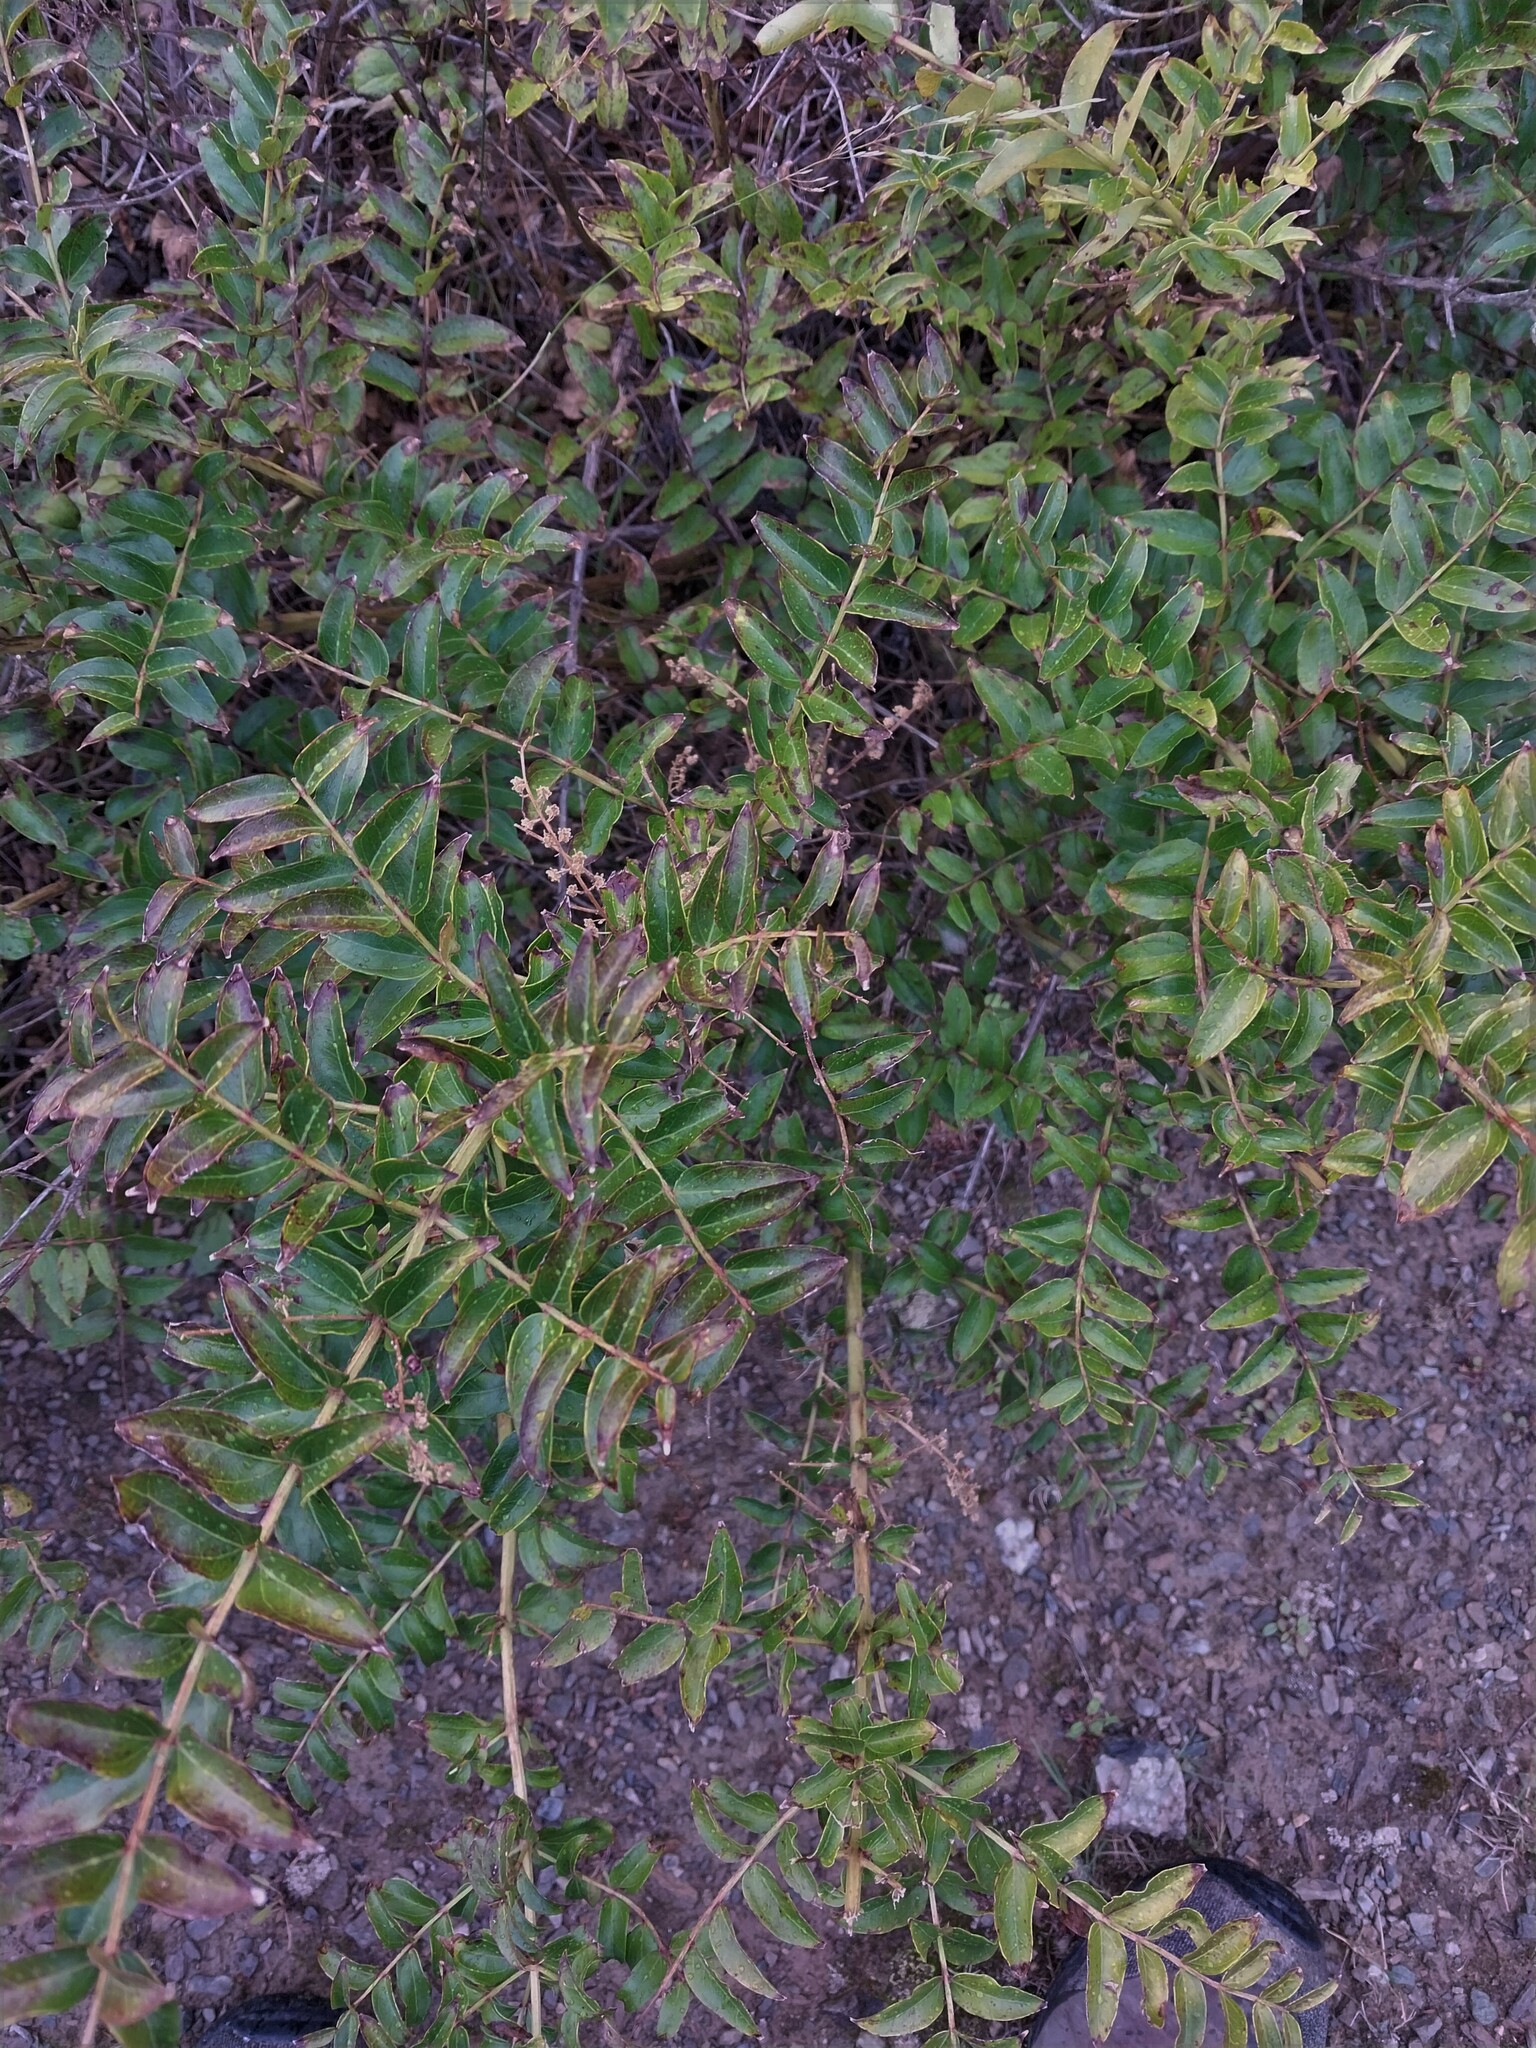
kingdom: Plantae
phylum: Tracheophyta
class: Magnoliopsida
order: Cucurbitales
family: Coriariaceae
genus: Coriaria
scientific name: Coriaria sarmentosa
